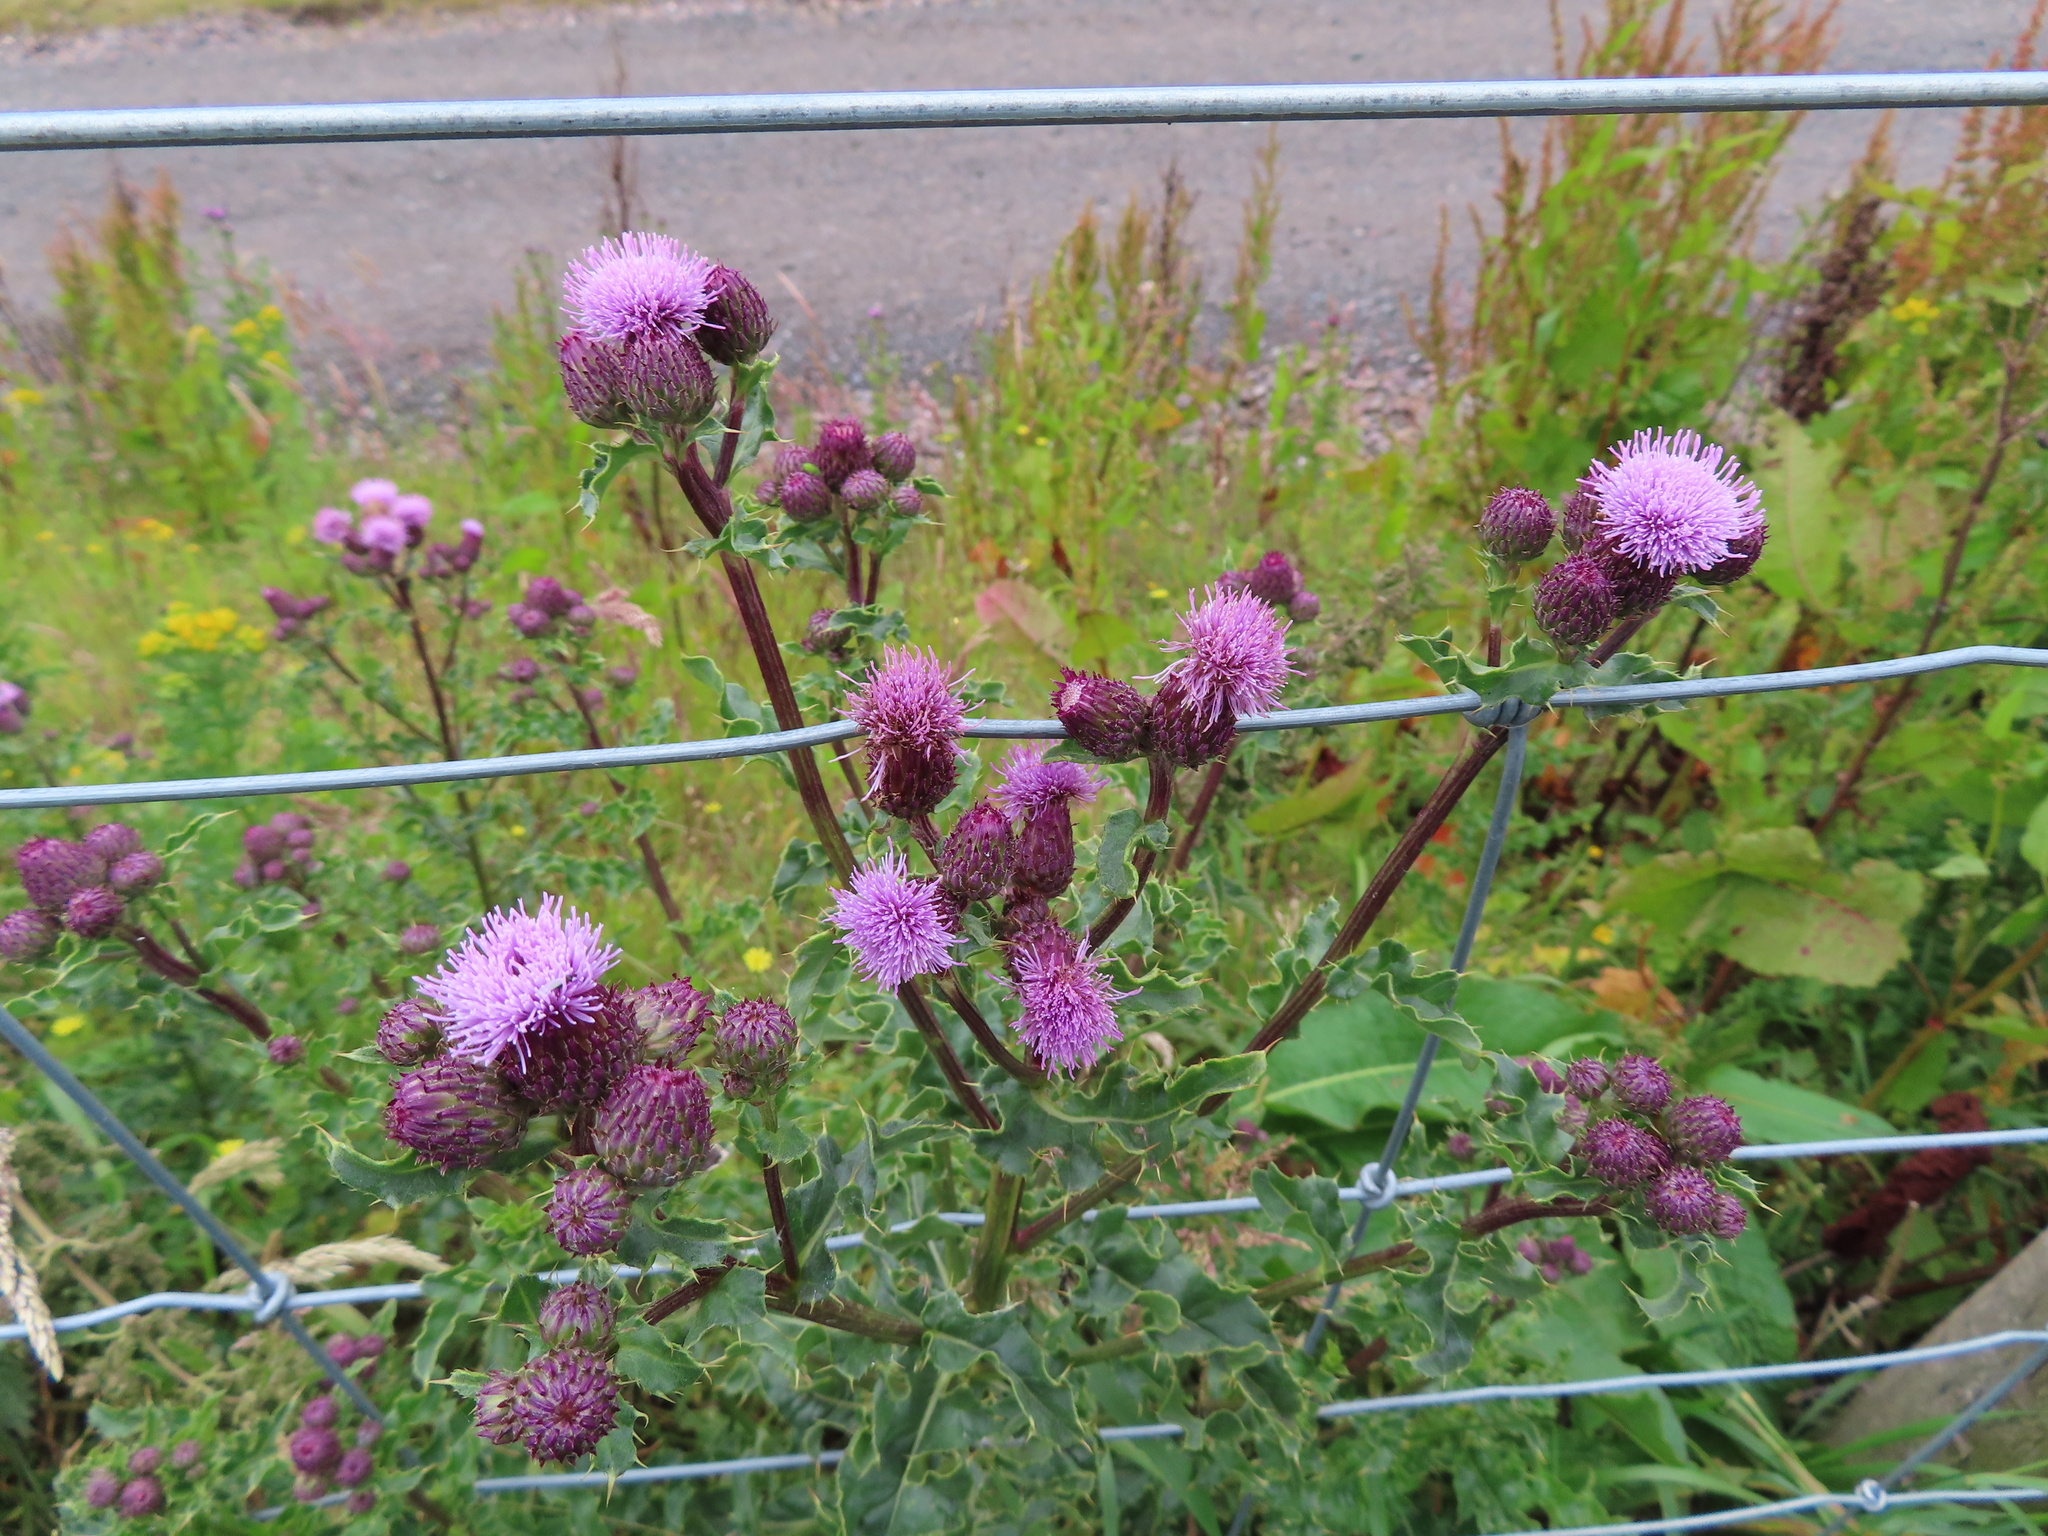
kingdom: Plantae
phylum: Tracheophyta
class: Magnoliopsida
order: Asterales
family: Asteraceae
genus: Cirsium
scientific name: Cirsium arvense
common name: Creeping thistle
